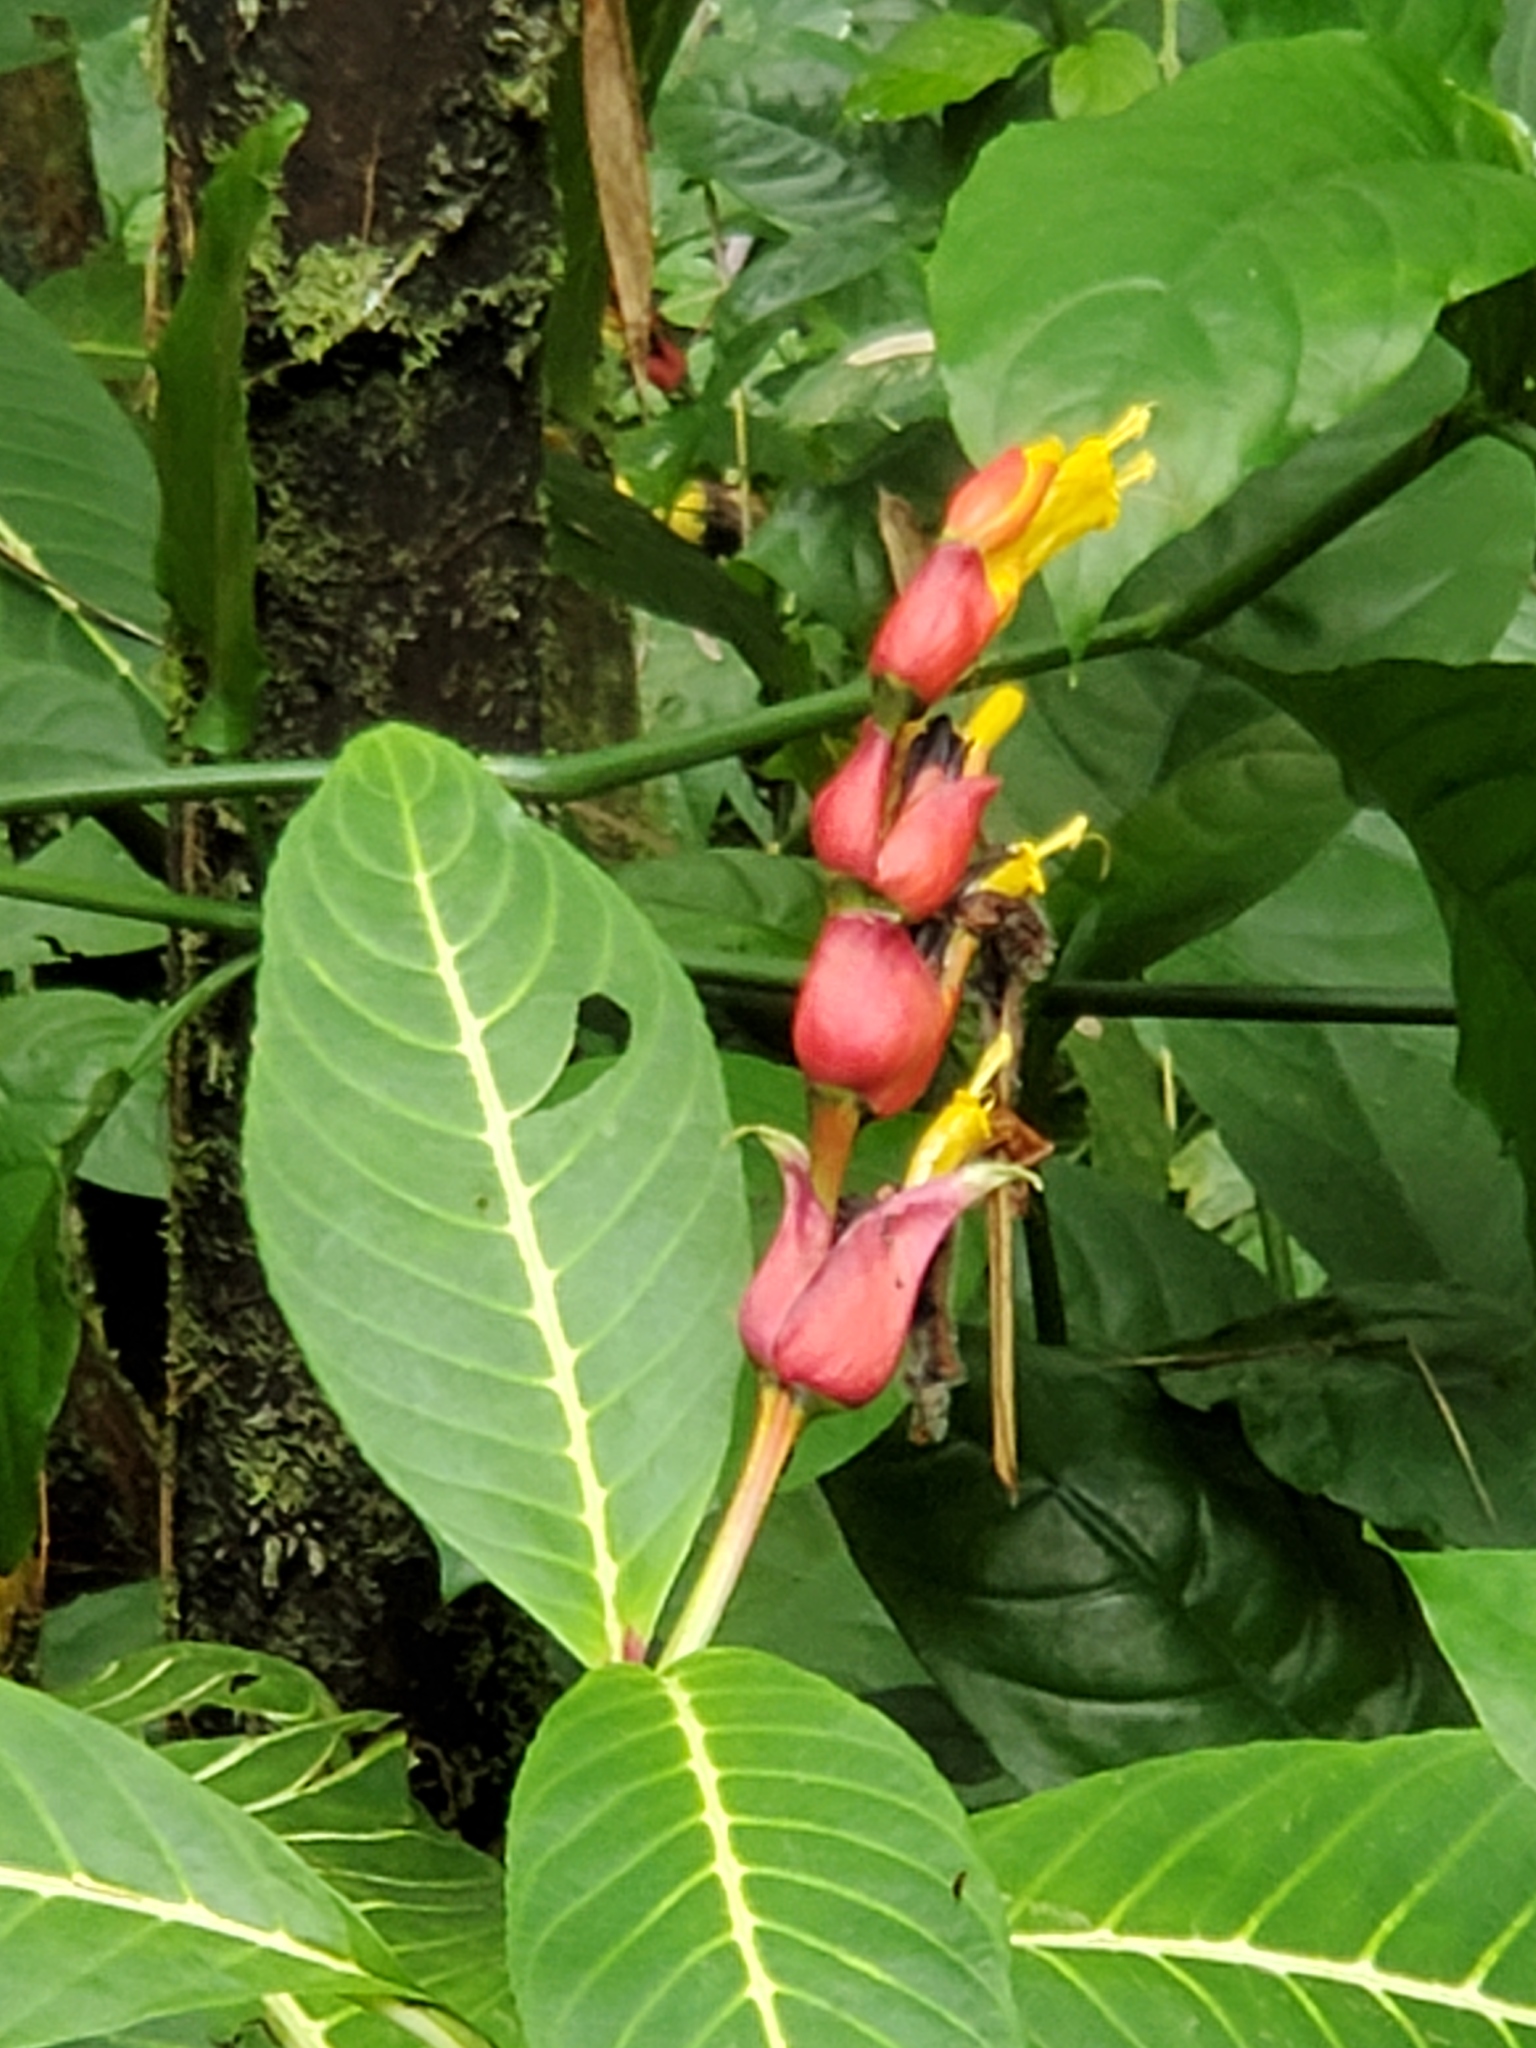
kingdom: Plantae
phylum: Tracheophyta
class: Magnoliopsida
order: Lamiales
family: Acanthaceae
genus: Sanchezia
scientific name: Sanchezia oblonga
